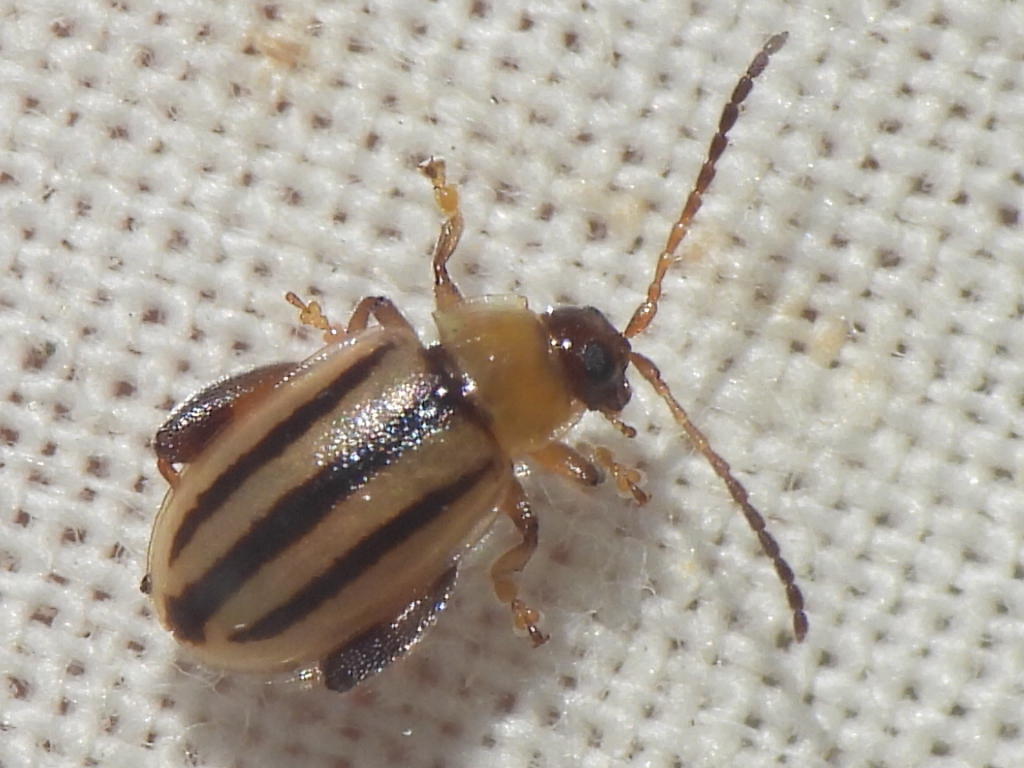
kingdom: Animalia
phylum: Arthropoda
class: Insecta
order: Coleoptera
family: Chrysomelidae
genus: Capraita
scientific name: Capraita texana
